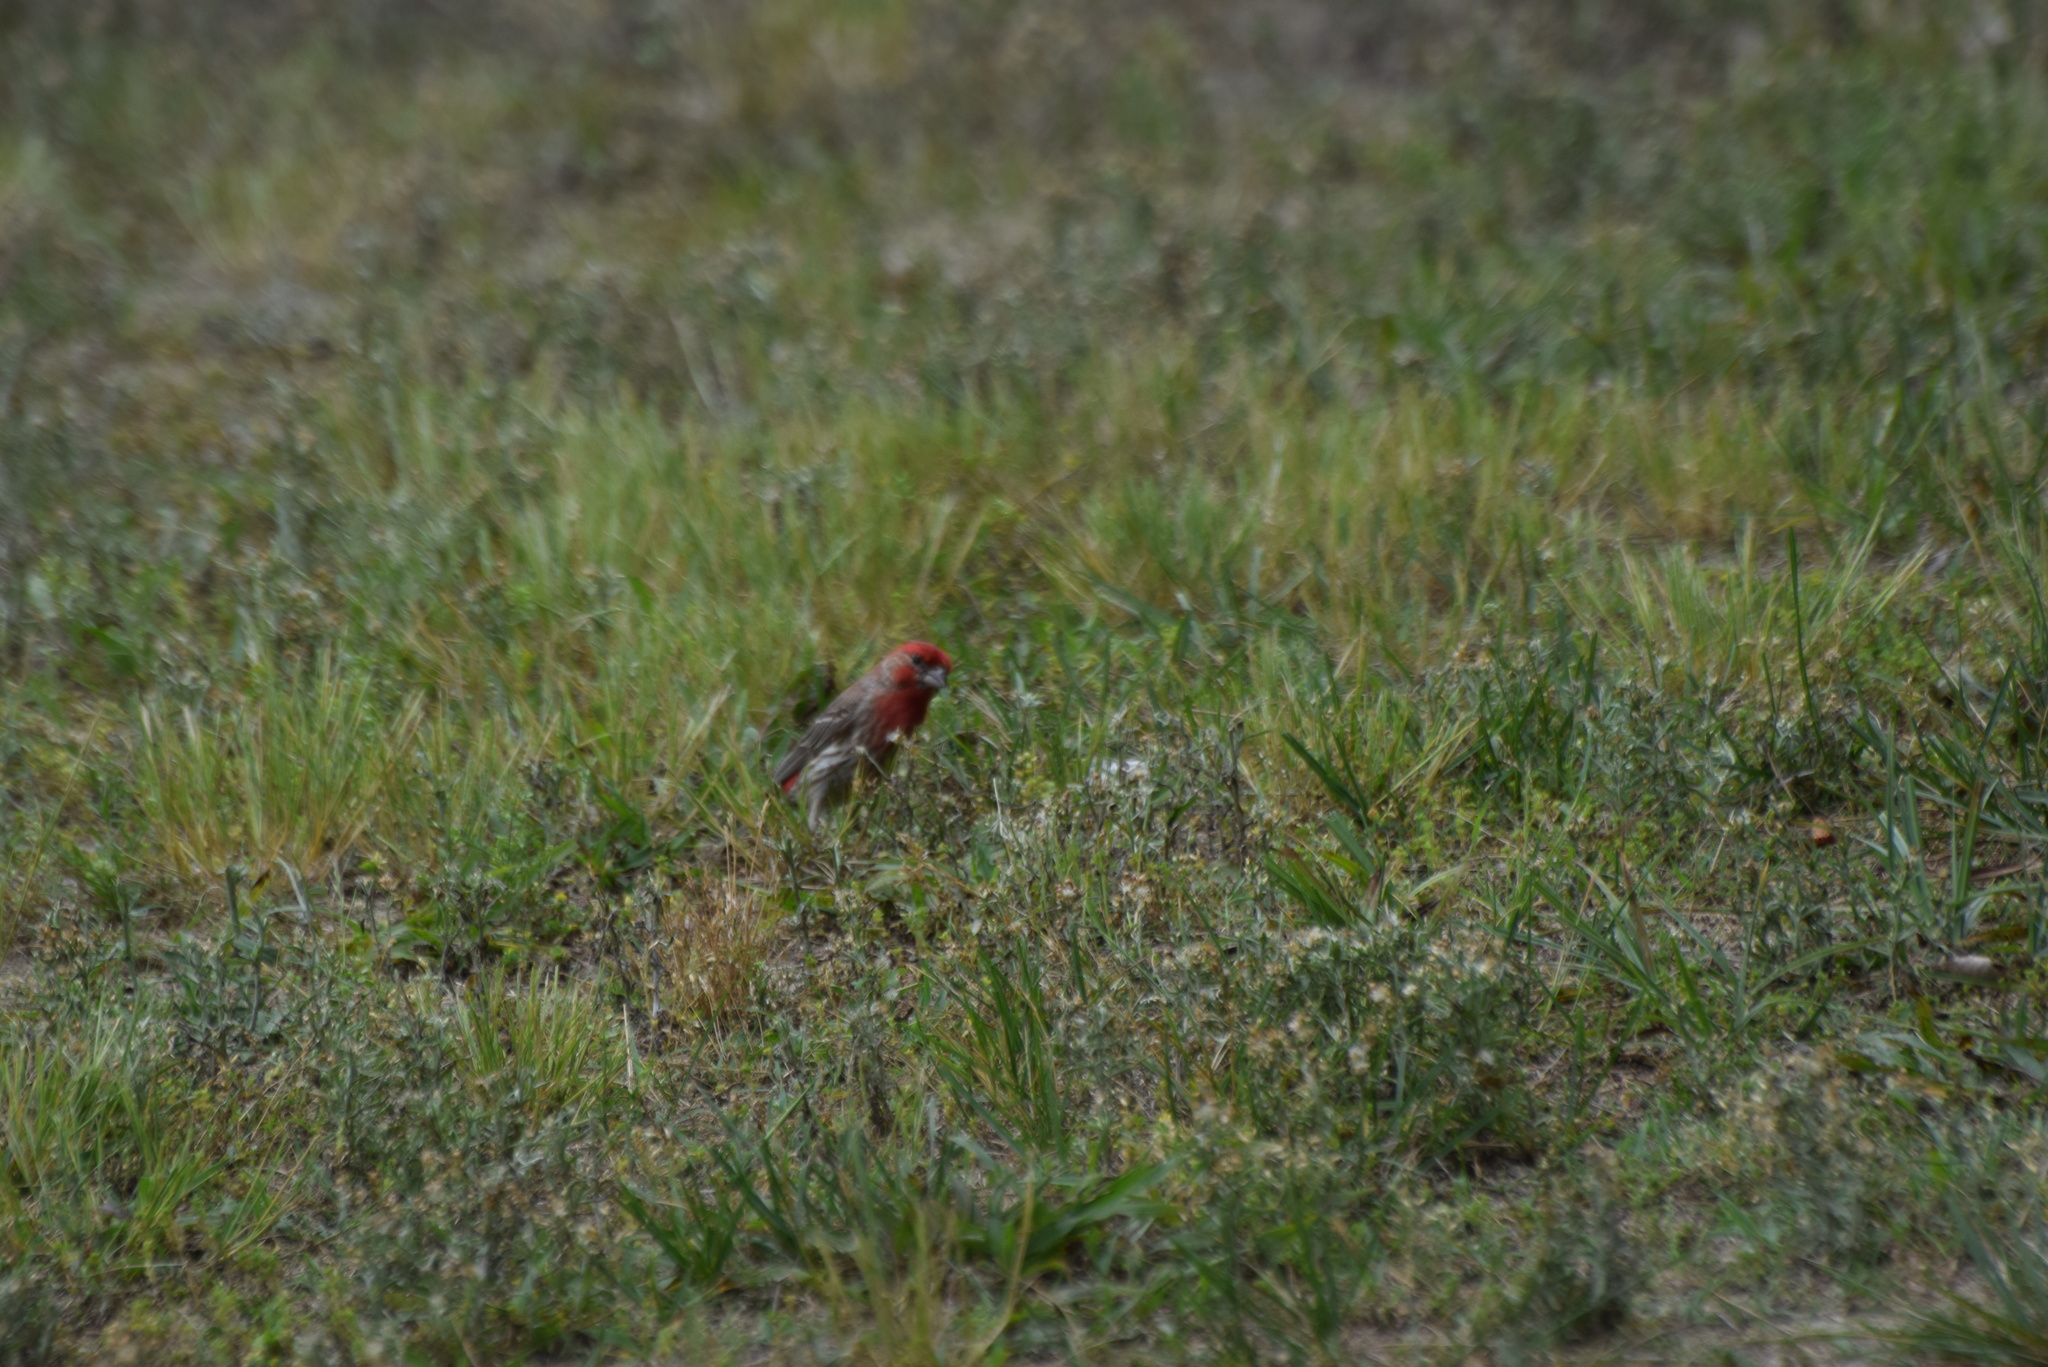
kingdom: Animalia
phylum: Chordata
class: Aves
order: Passeriformes
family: Fringillidae
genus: Haemorhous
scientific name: Haemorhous mexicanus
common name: House finch
